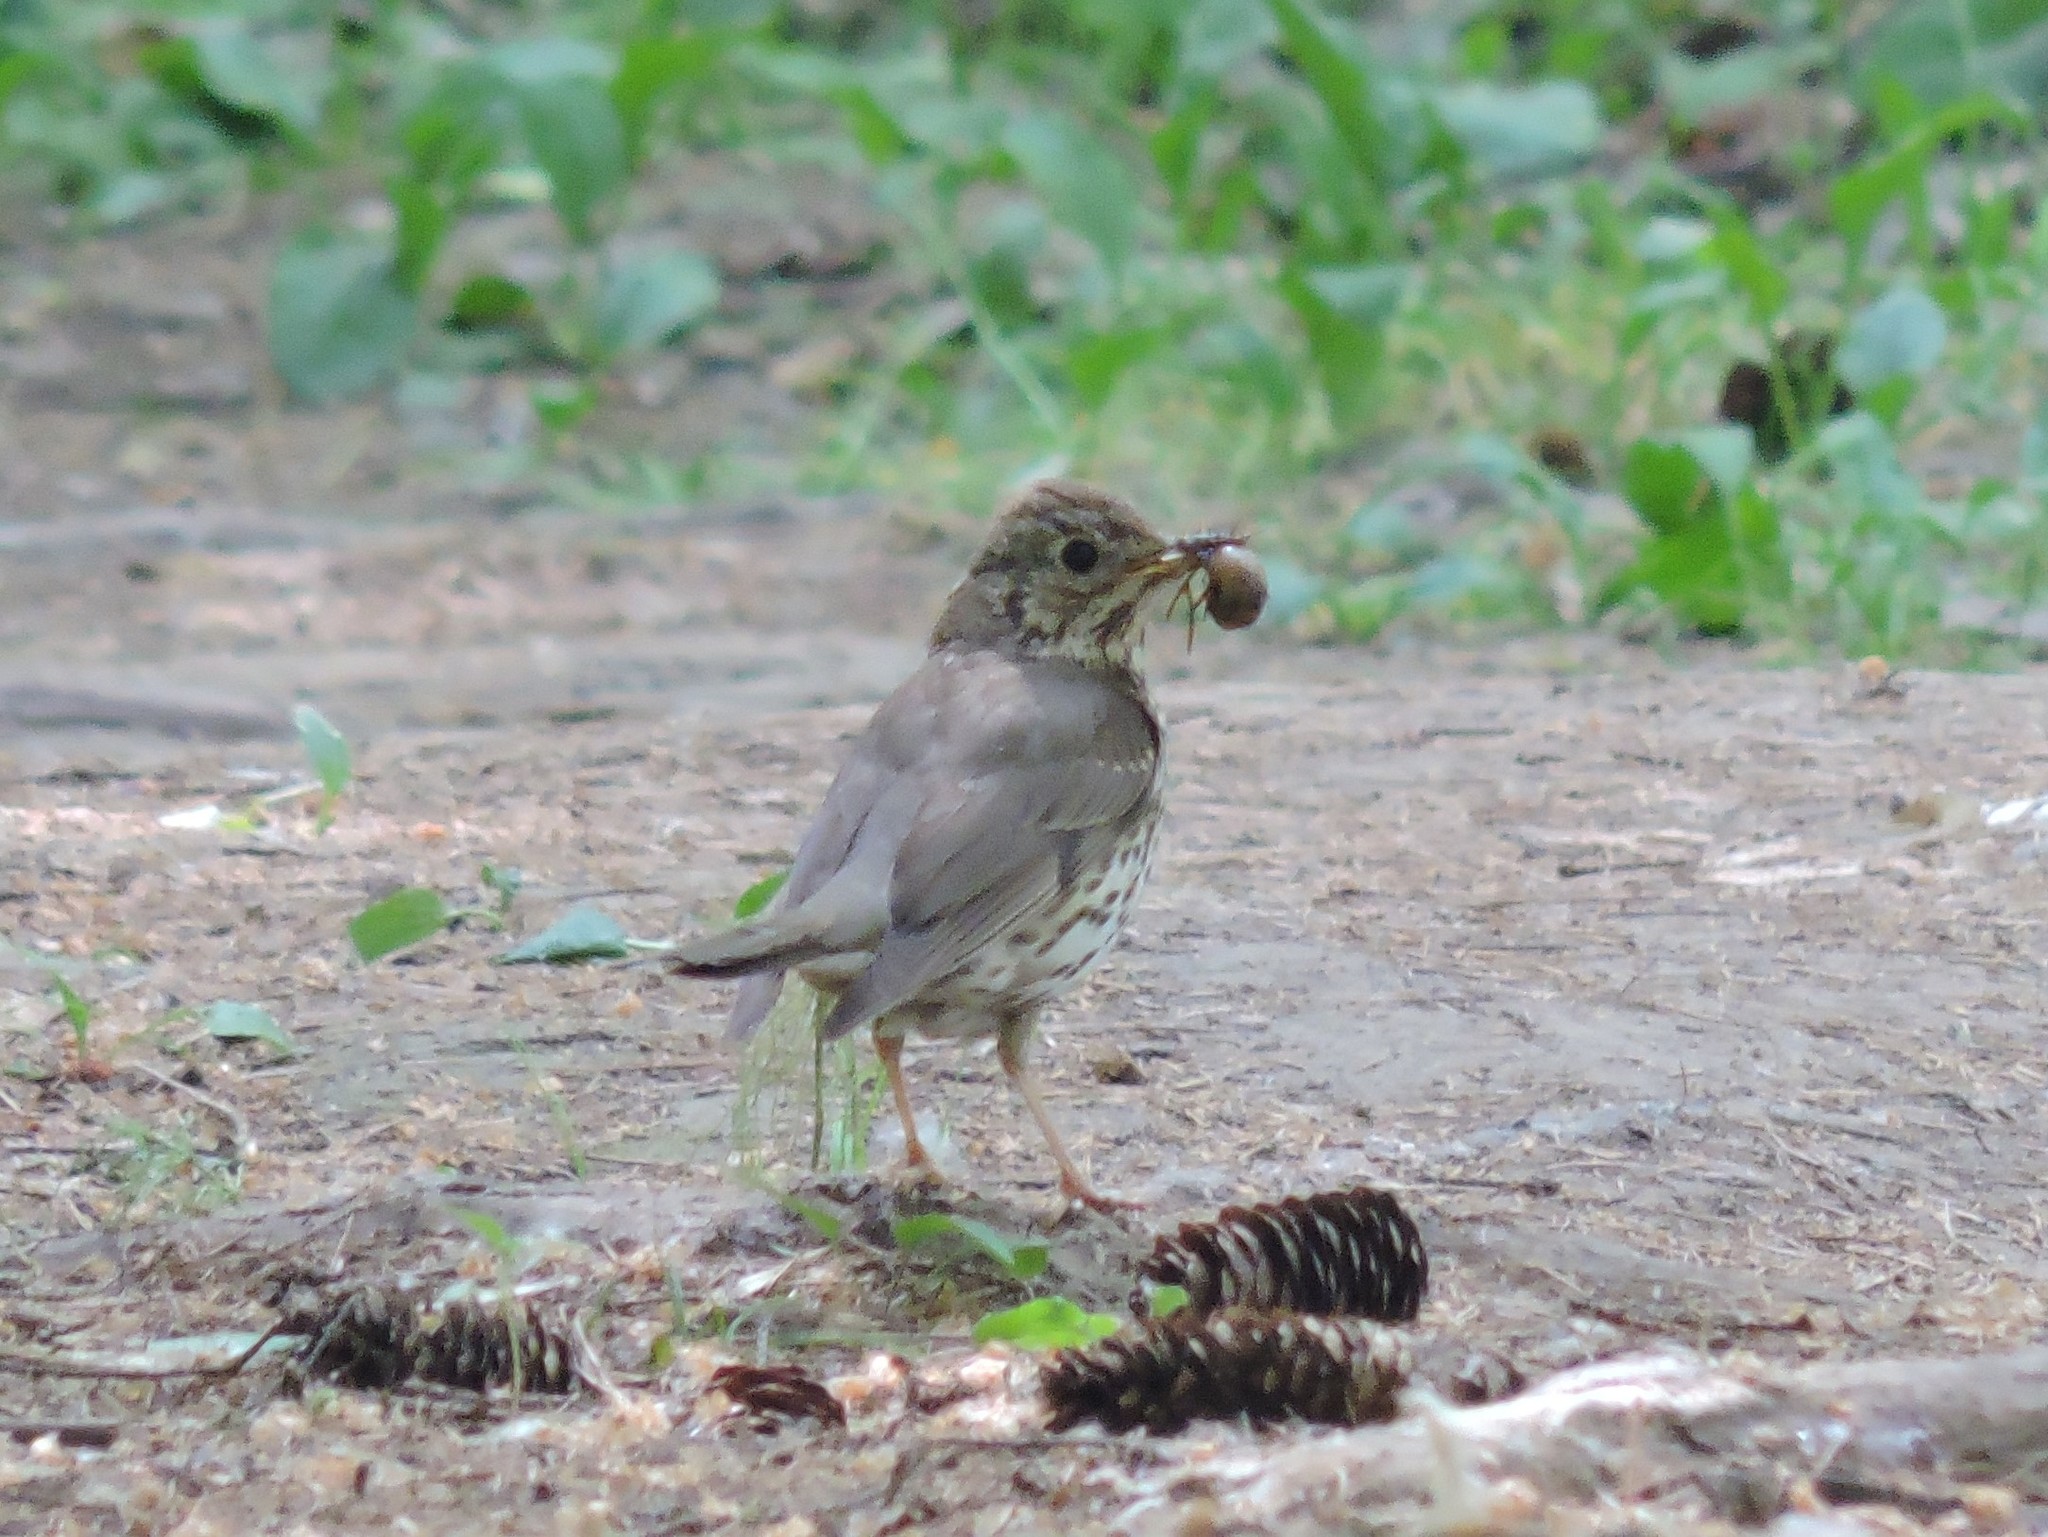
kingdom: Animalia
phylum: Chordata
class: Aves
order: Passeriformes
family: Turdidae
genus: Turdus
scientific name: Turdus philomelos
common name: Song thrush
